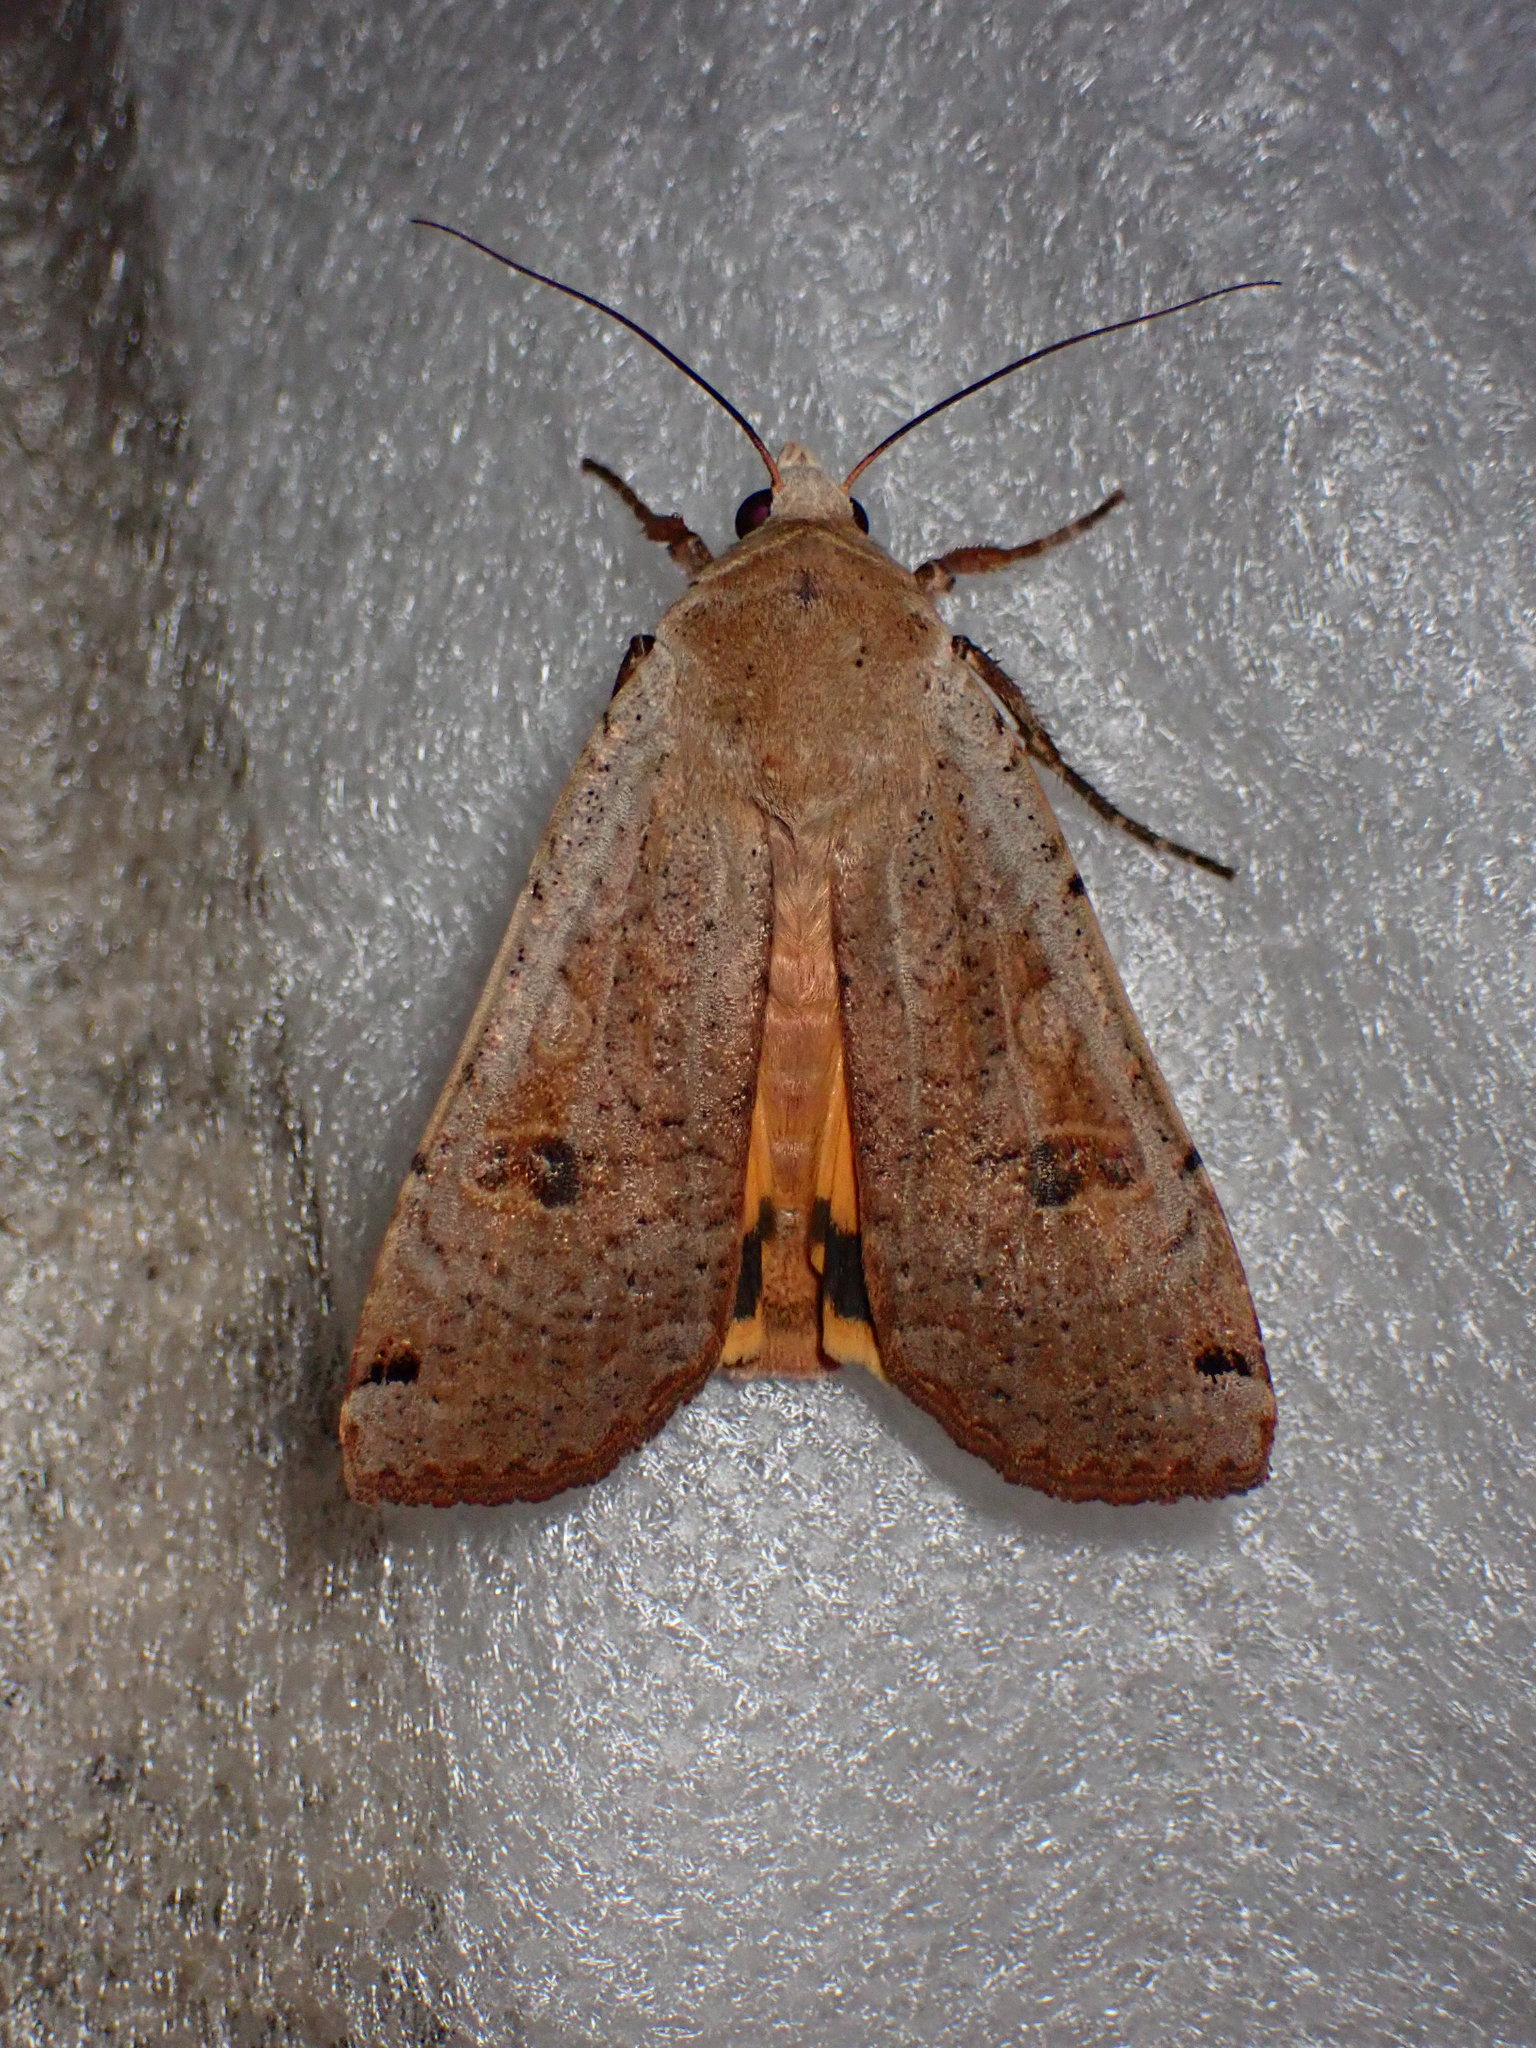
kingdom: Animalia
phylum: Arthropoda
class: Insecta
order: Lepidoptera
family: Noctuidae
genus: Noctua
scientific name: Noctua pronuba
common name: Large yellow underwing
